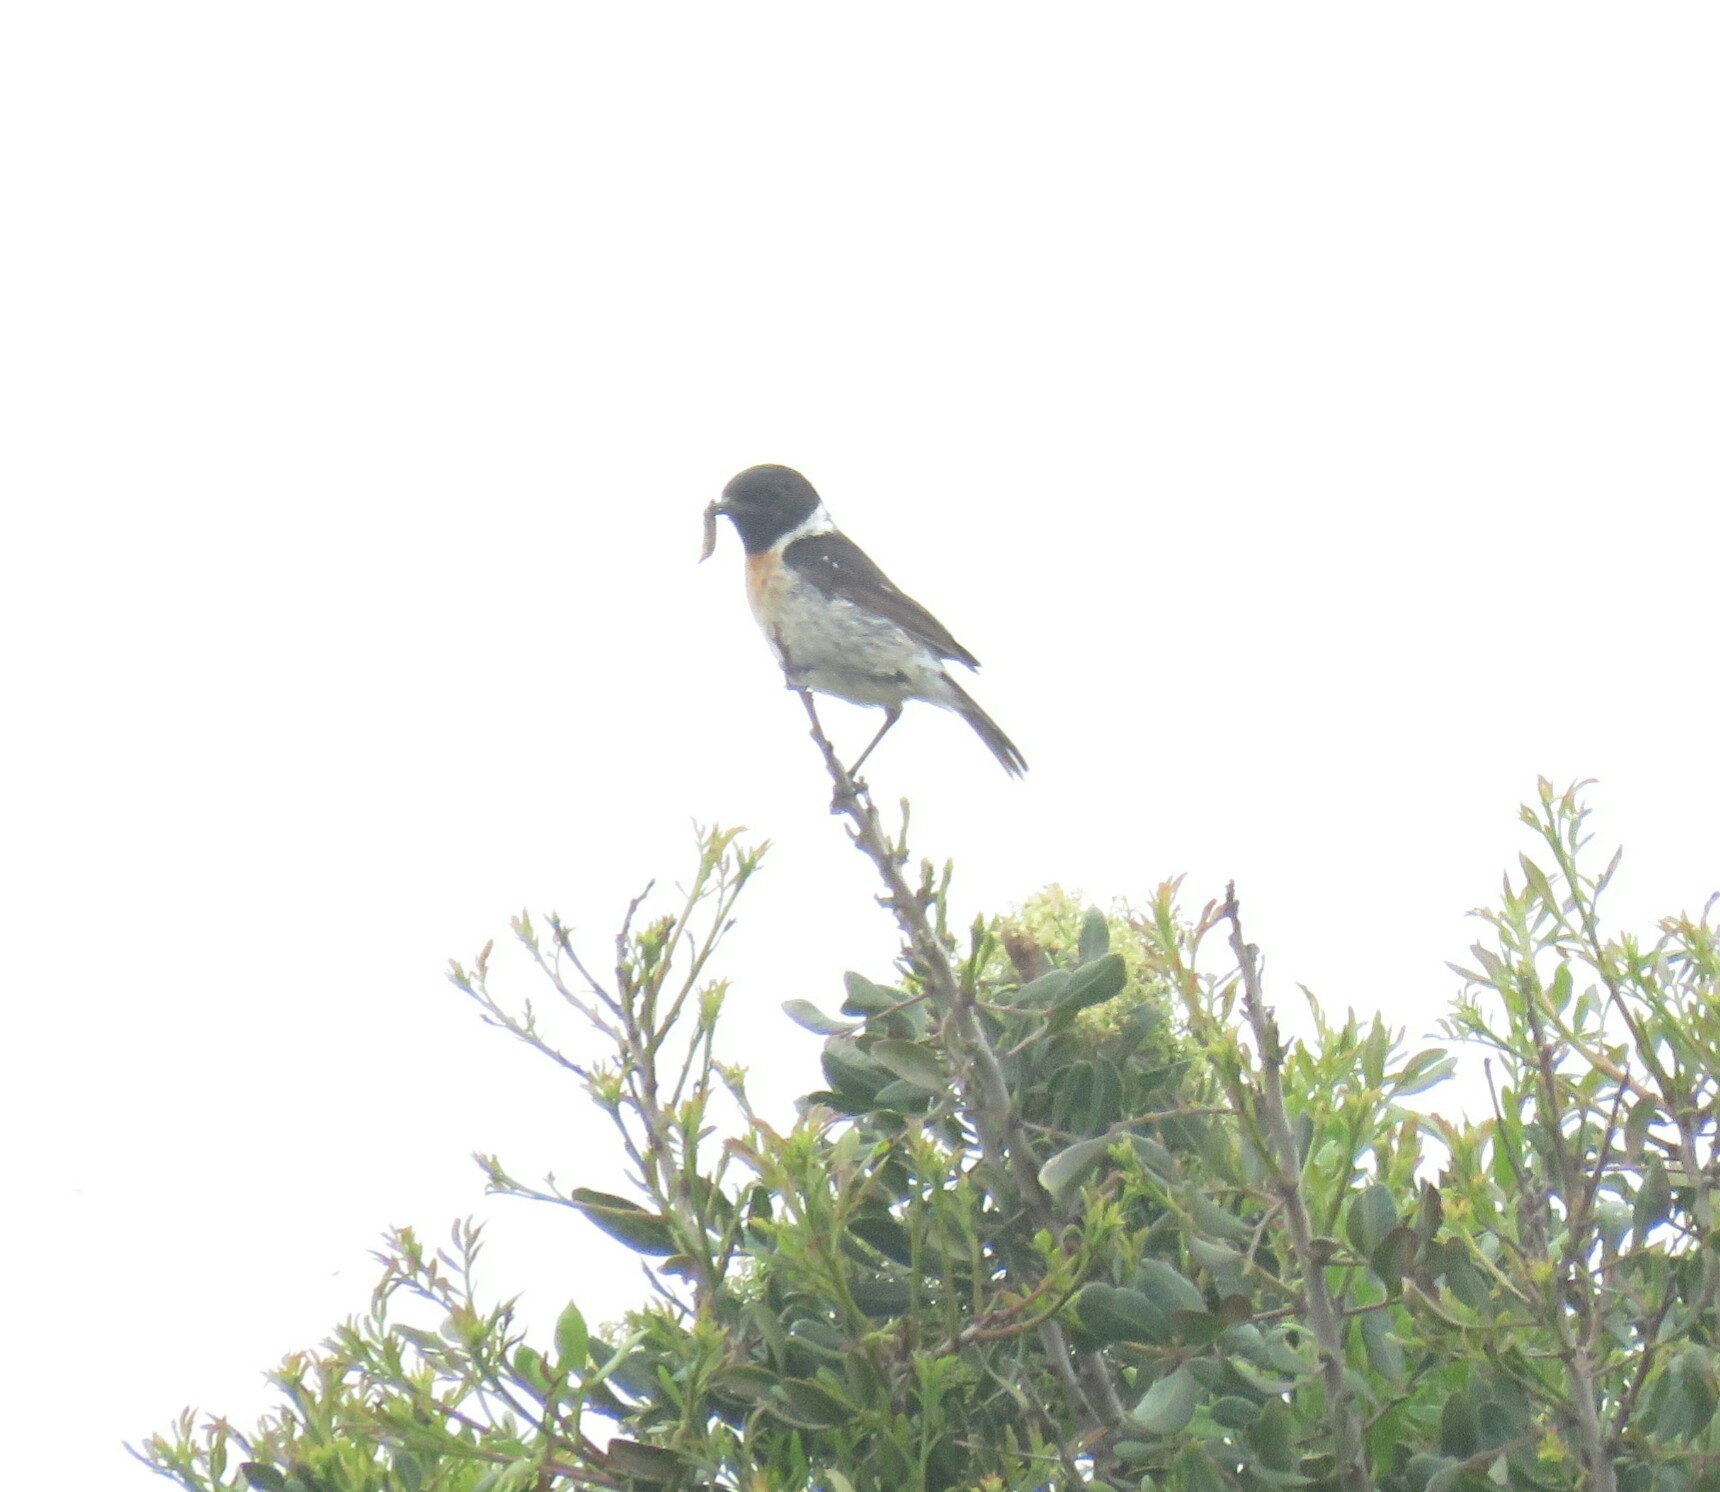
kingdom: Animalia
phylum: Chordata
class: Aves
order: Passeriformes
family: Muscicapidae
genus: Saxicola
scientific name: Saxicola rubicola
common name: European stonechat
